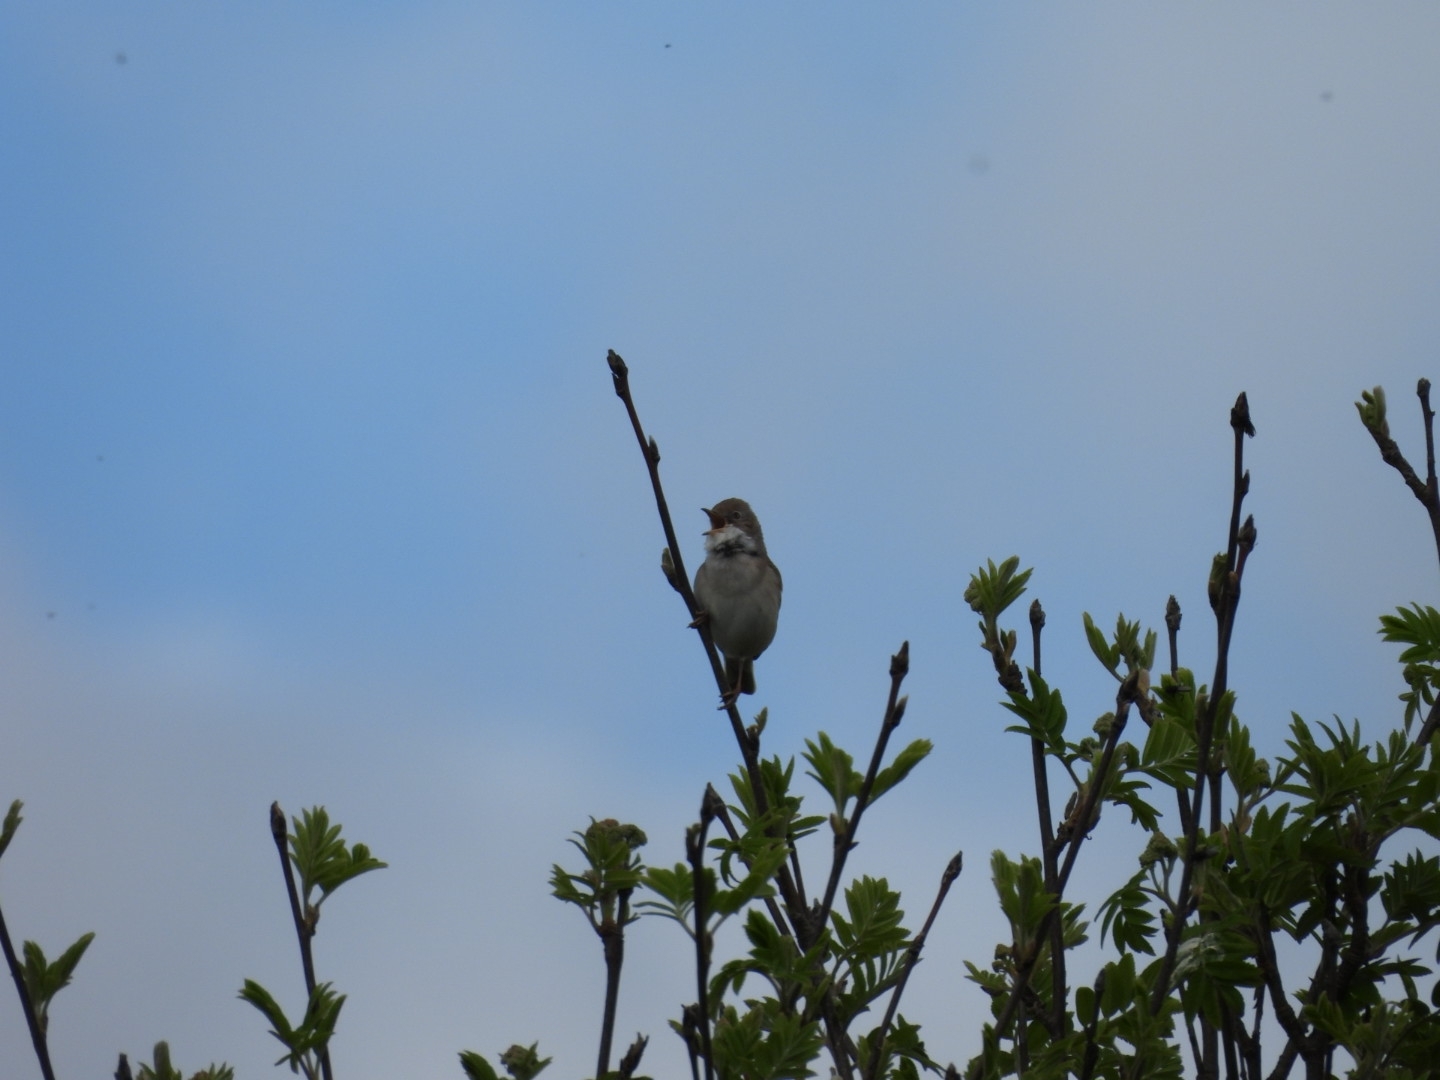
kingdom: Animalia
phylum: Chordata
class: Aves
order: Passeriformes
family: Sylviidae
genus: Sylvia
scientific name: Sylvia communis
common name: Common whitethroat
